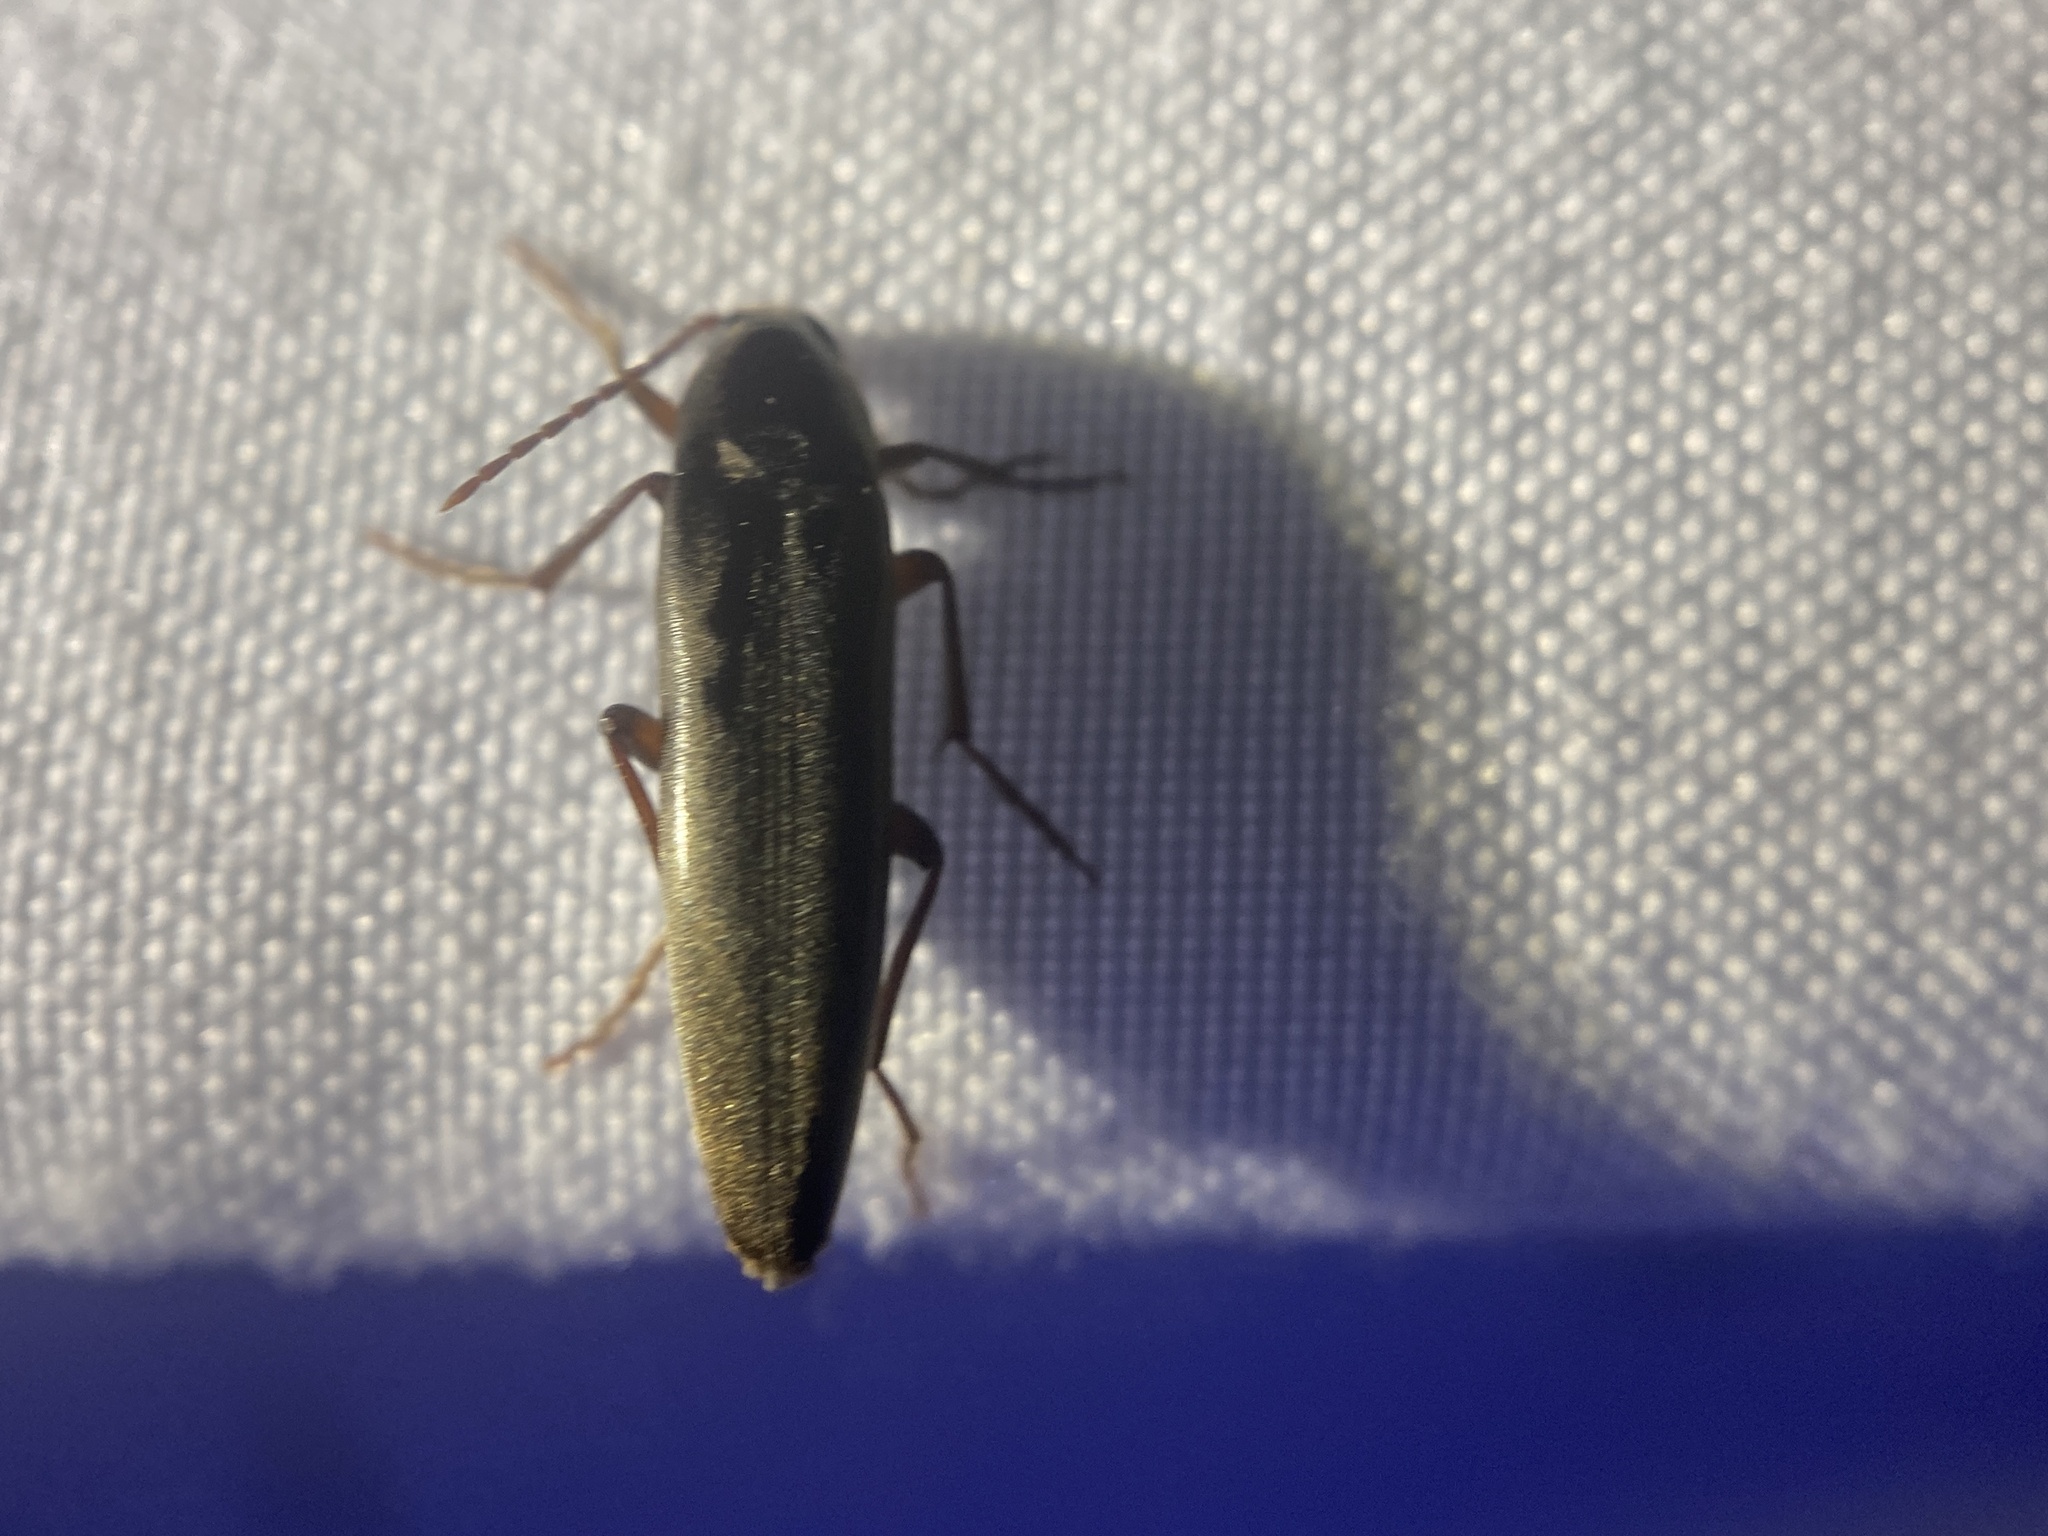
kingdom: Animalia
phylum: Arthropoda
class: Insecta
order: Coleoptera
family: Melandryidae
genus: Enchodes
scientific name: Enchodes sericea
